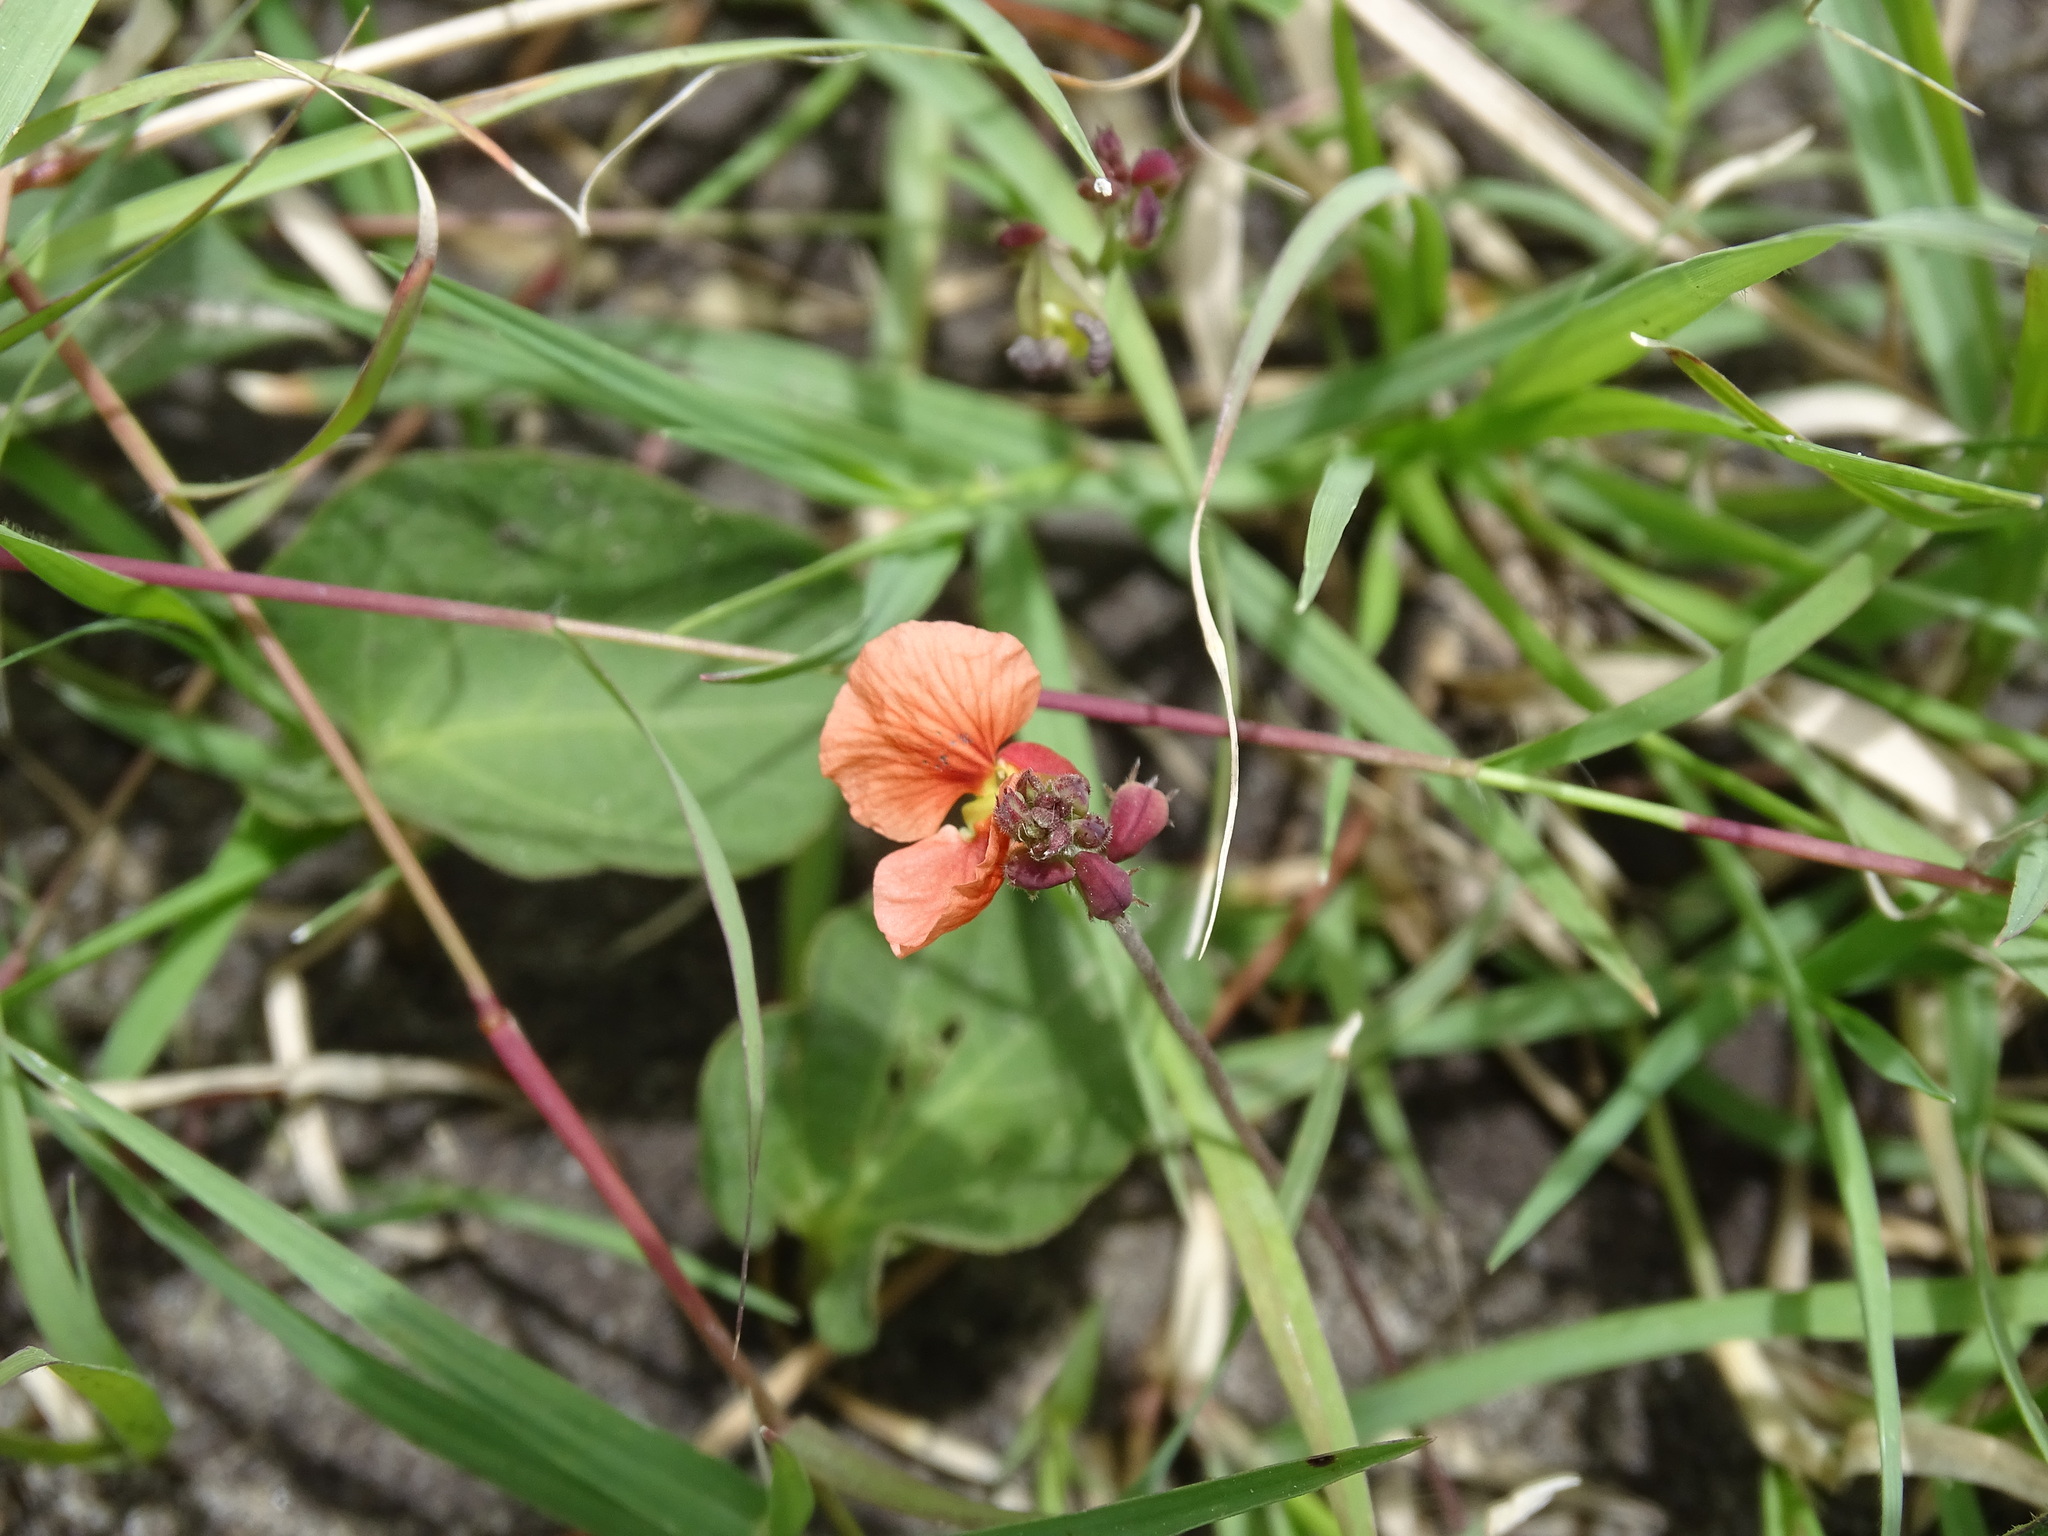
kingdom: Plantae
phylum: Tracheophyta
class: Magnoliopsida
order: Fabales
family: Fabaceae
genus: Macroptilium
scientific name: Macroptilium gibbosifolium
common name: Variableleaf bushbean
